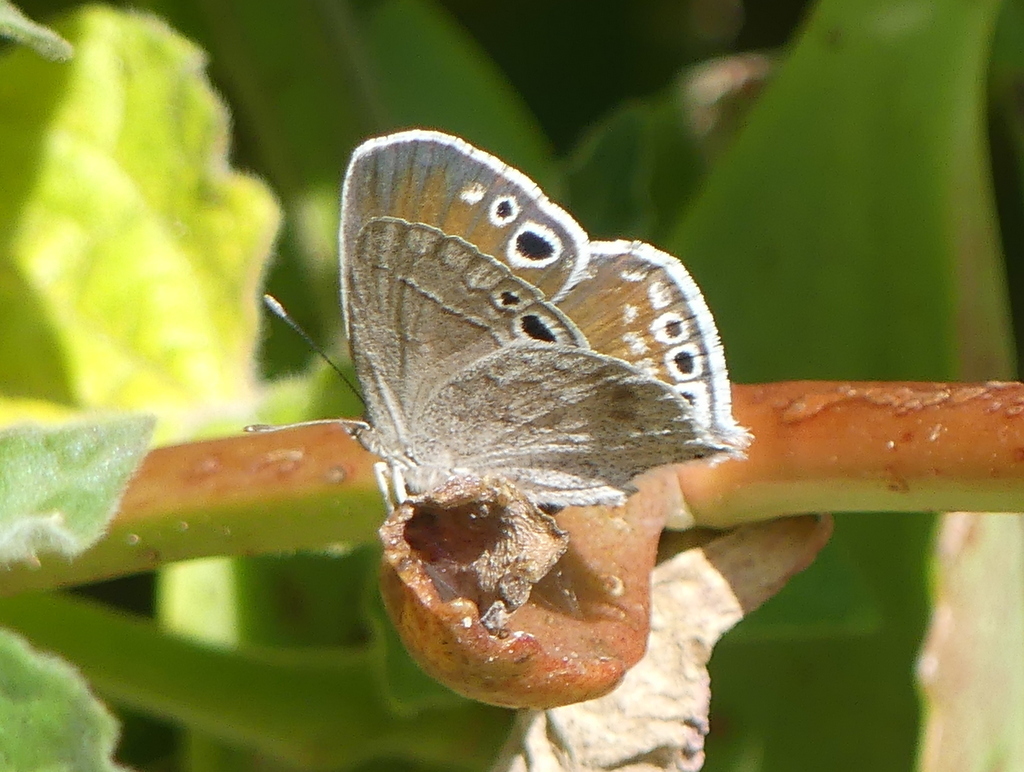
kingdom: Animalia
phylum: Arthropoda
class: Insecta
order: Lepidoptera
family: Lycaenidae
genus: Leptomyrina
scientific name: Leptomyrina gorgias
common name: Common black-eye
